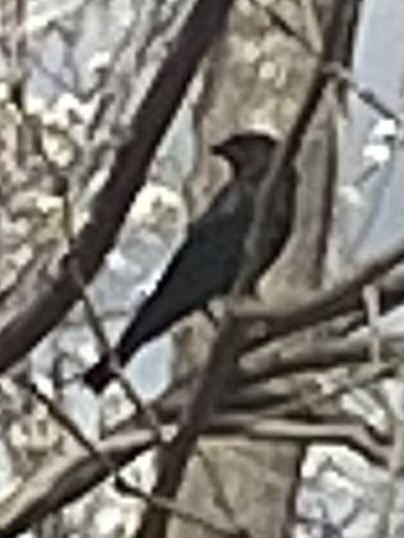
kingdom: Animalia
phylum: Chordata
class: Aves
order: Passeriformes
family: Icteridae
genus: Molothrus
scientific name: Molothrus ater
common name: Brown-headed cowbird
